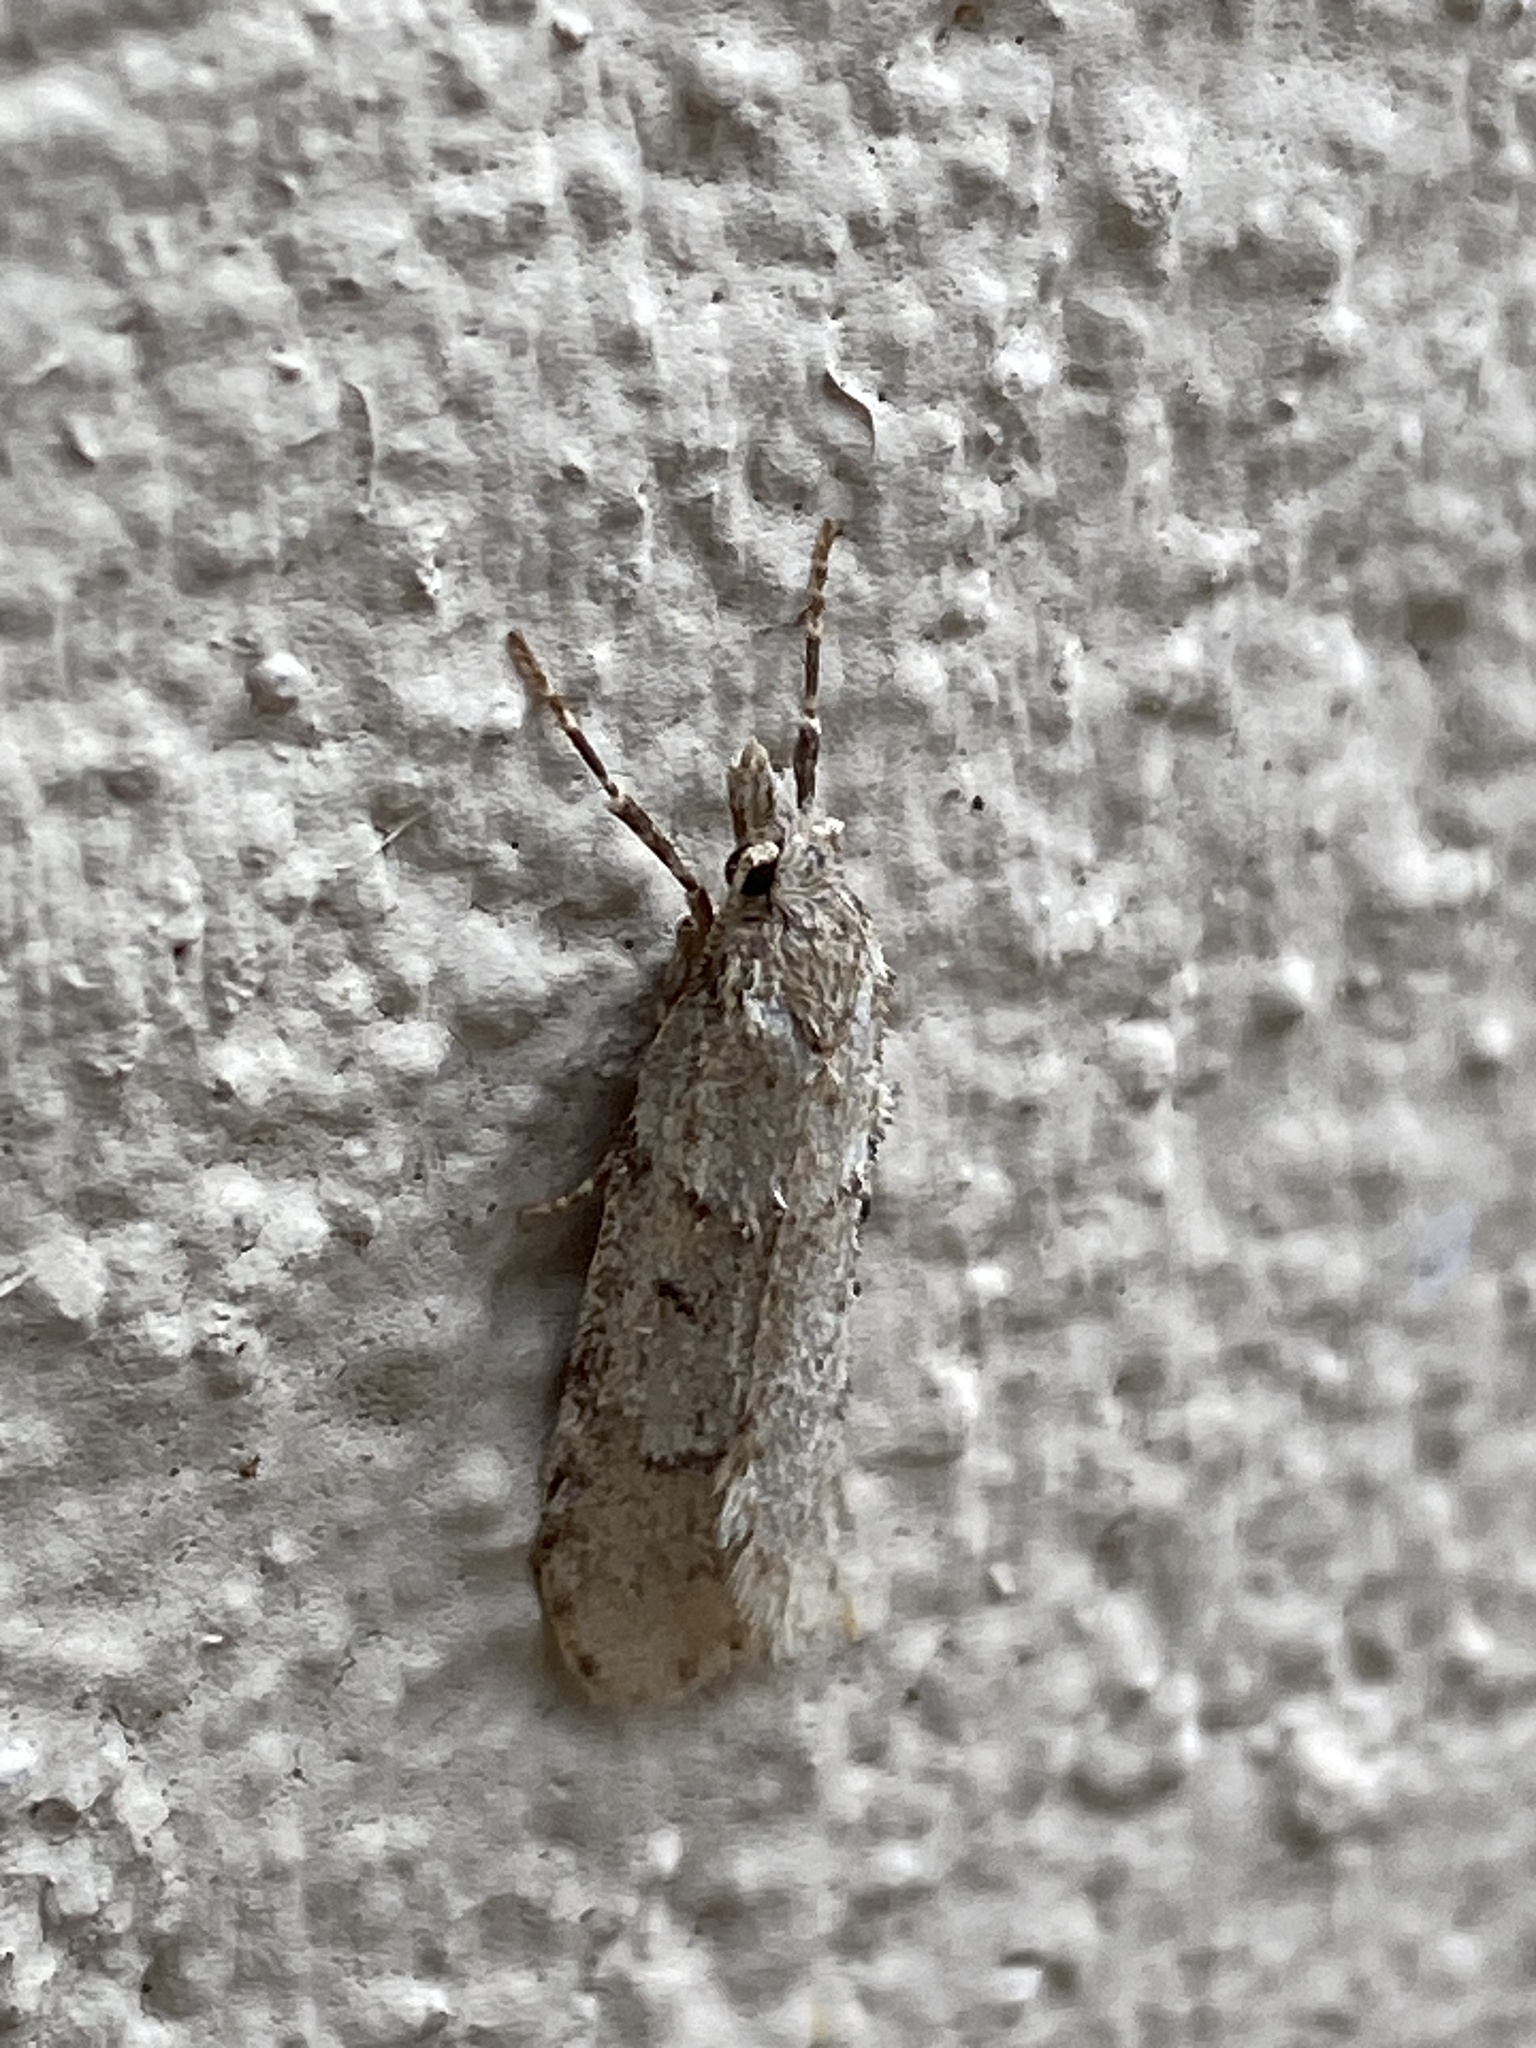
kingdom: Animalia
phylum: Arthropoda
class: Insecta
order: Lepidoptera
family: Lypusidae
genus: Diurnea
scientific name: Diurnea fagella
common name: March tubic
